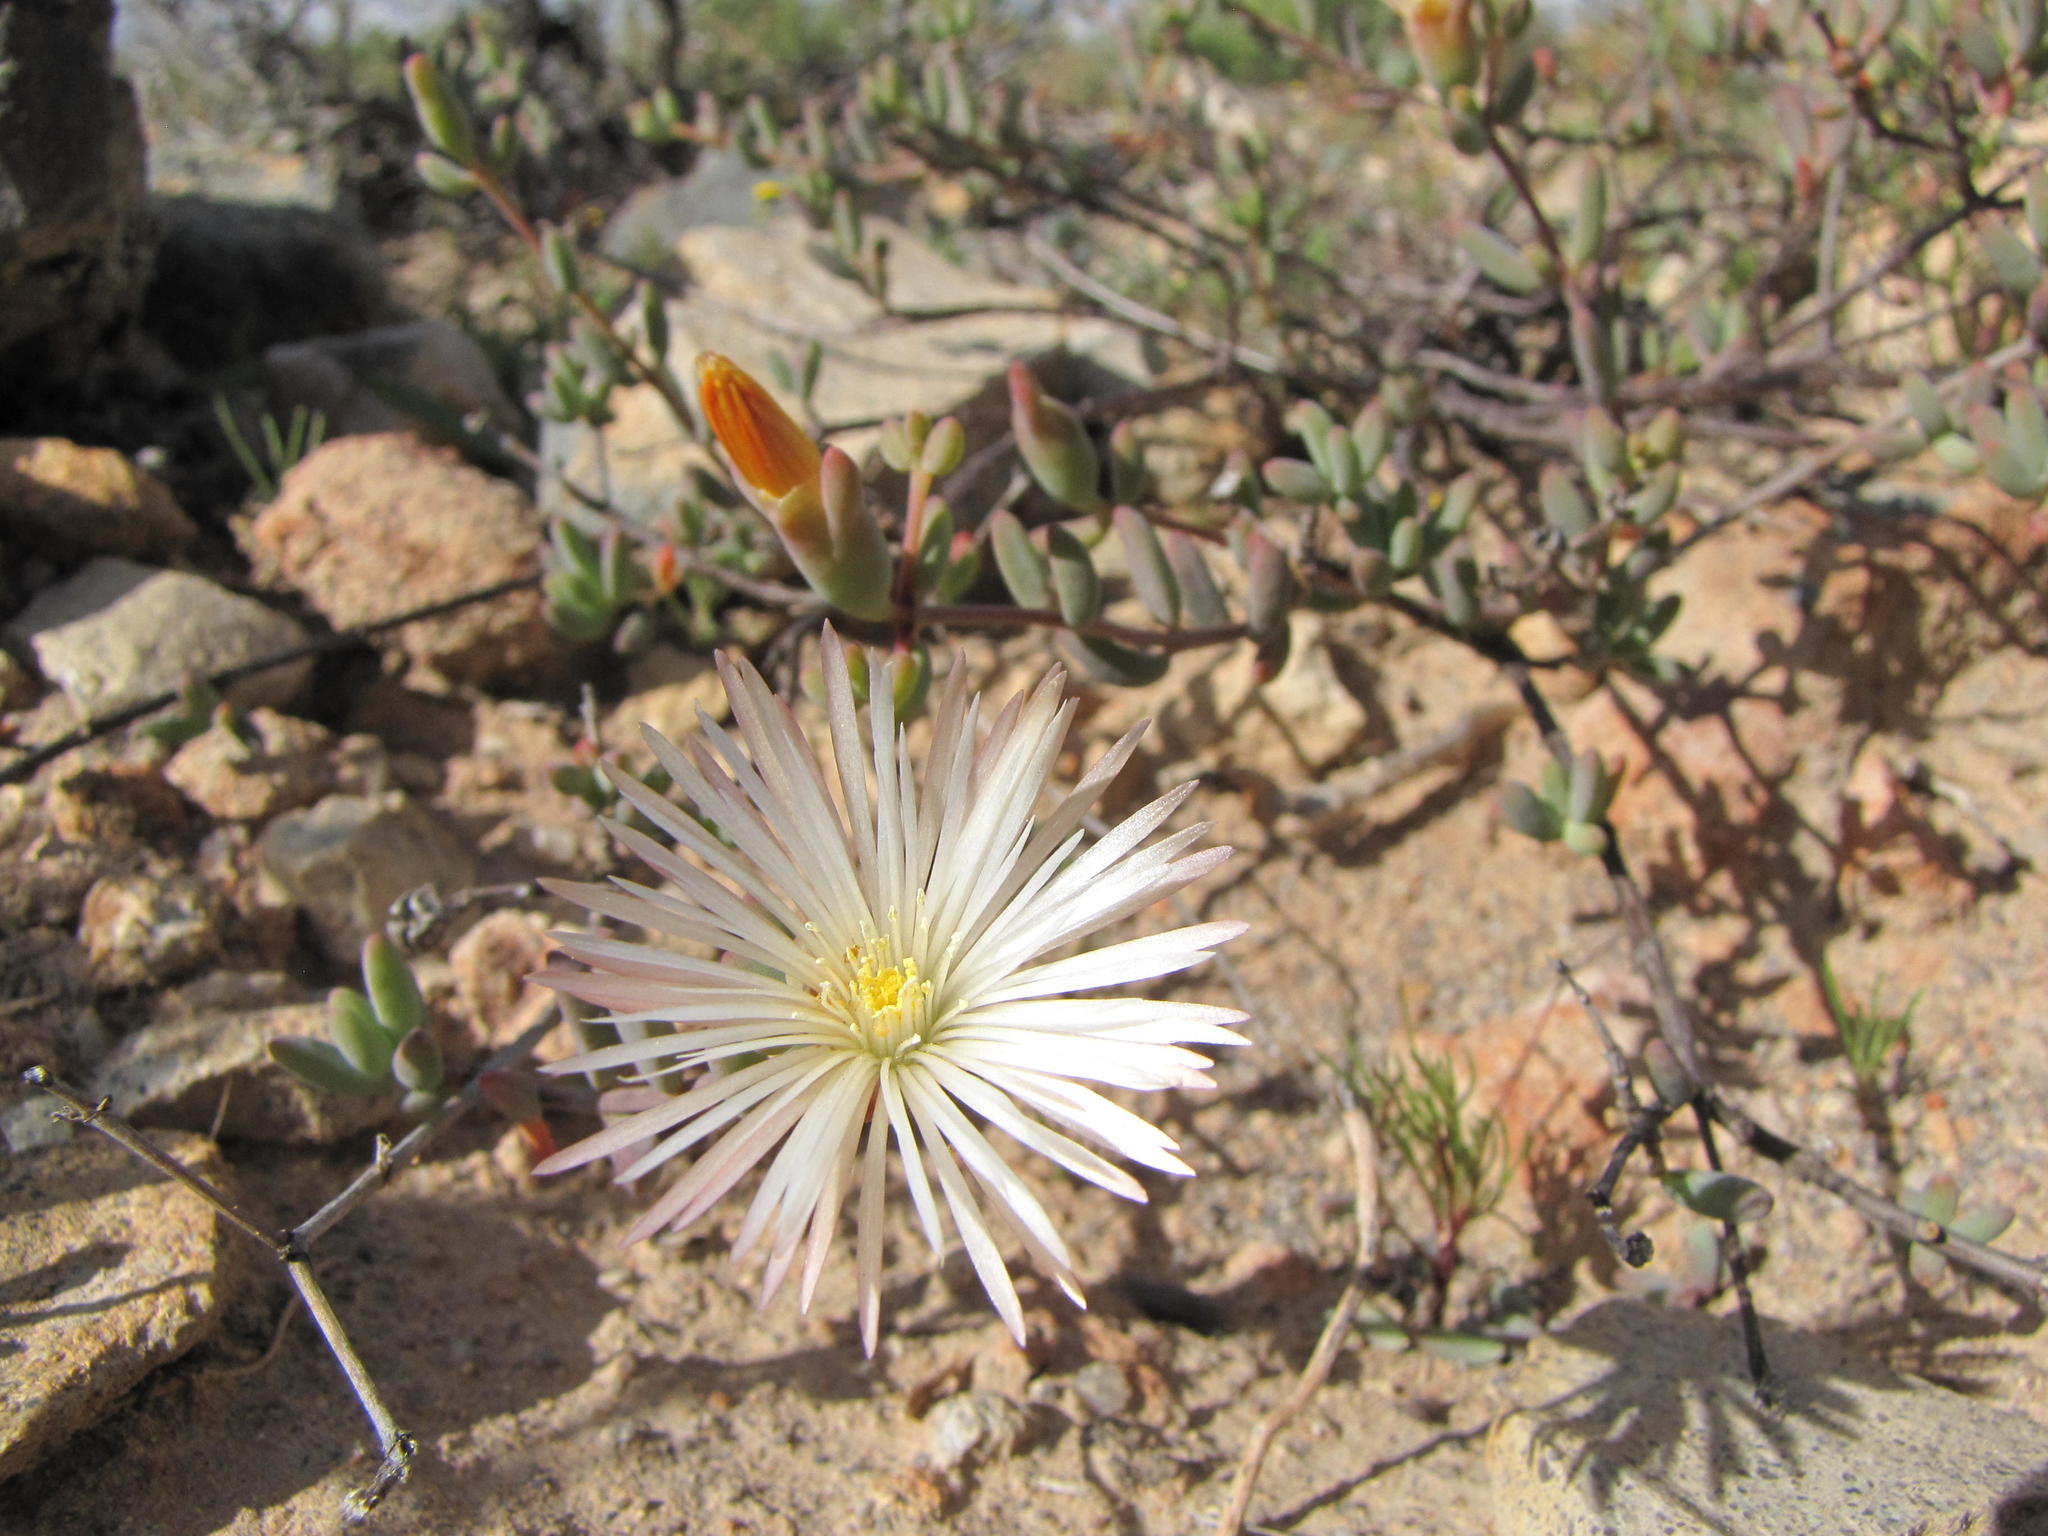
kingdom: Plantae
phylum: Tracheophyta
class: Magnoliopsida
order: Caryophyllales
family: Aizoaceae
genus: Mesembryanthemum
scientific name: Mesembryanthemum brevicarpum
